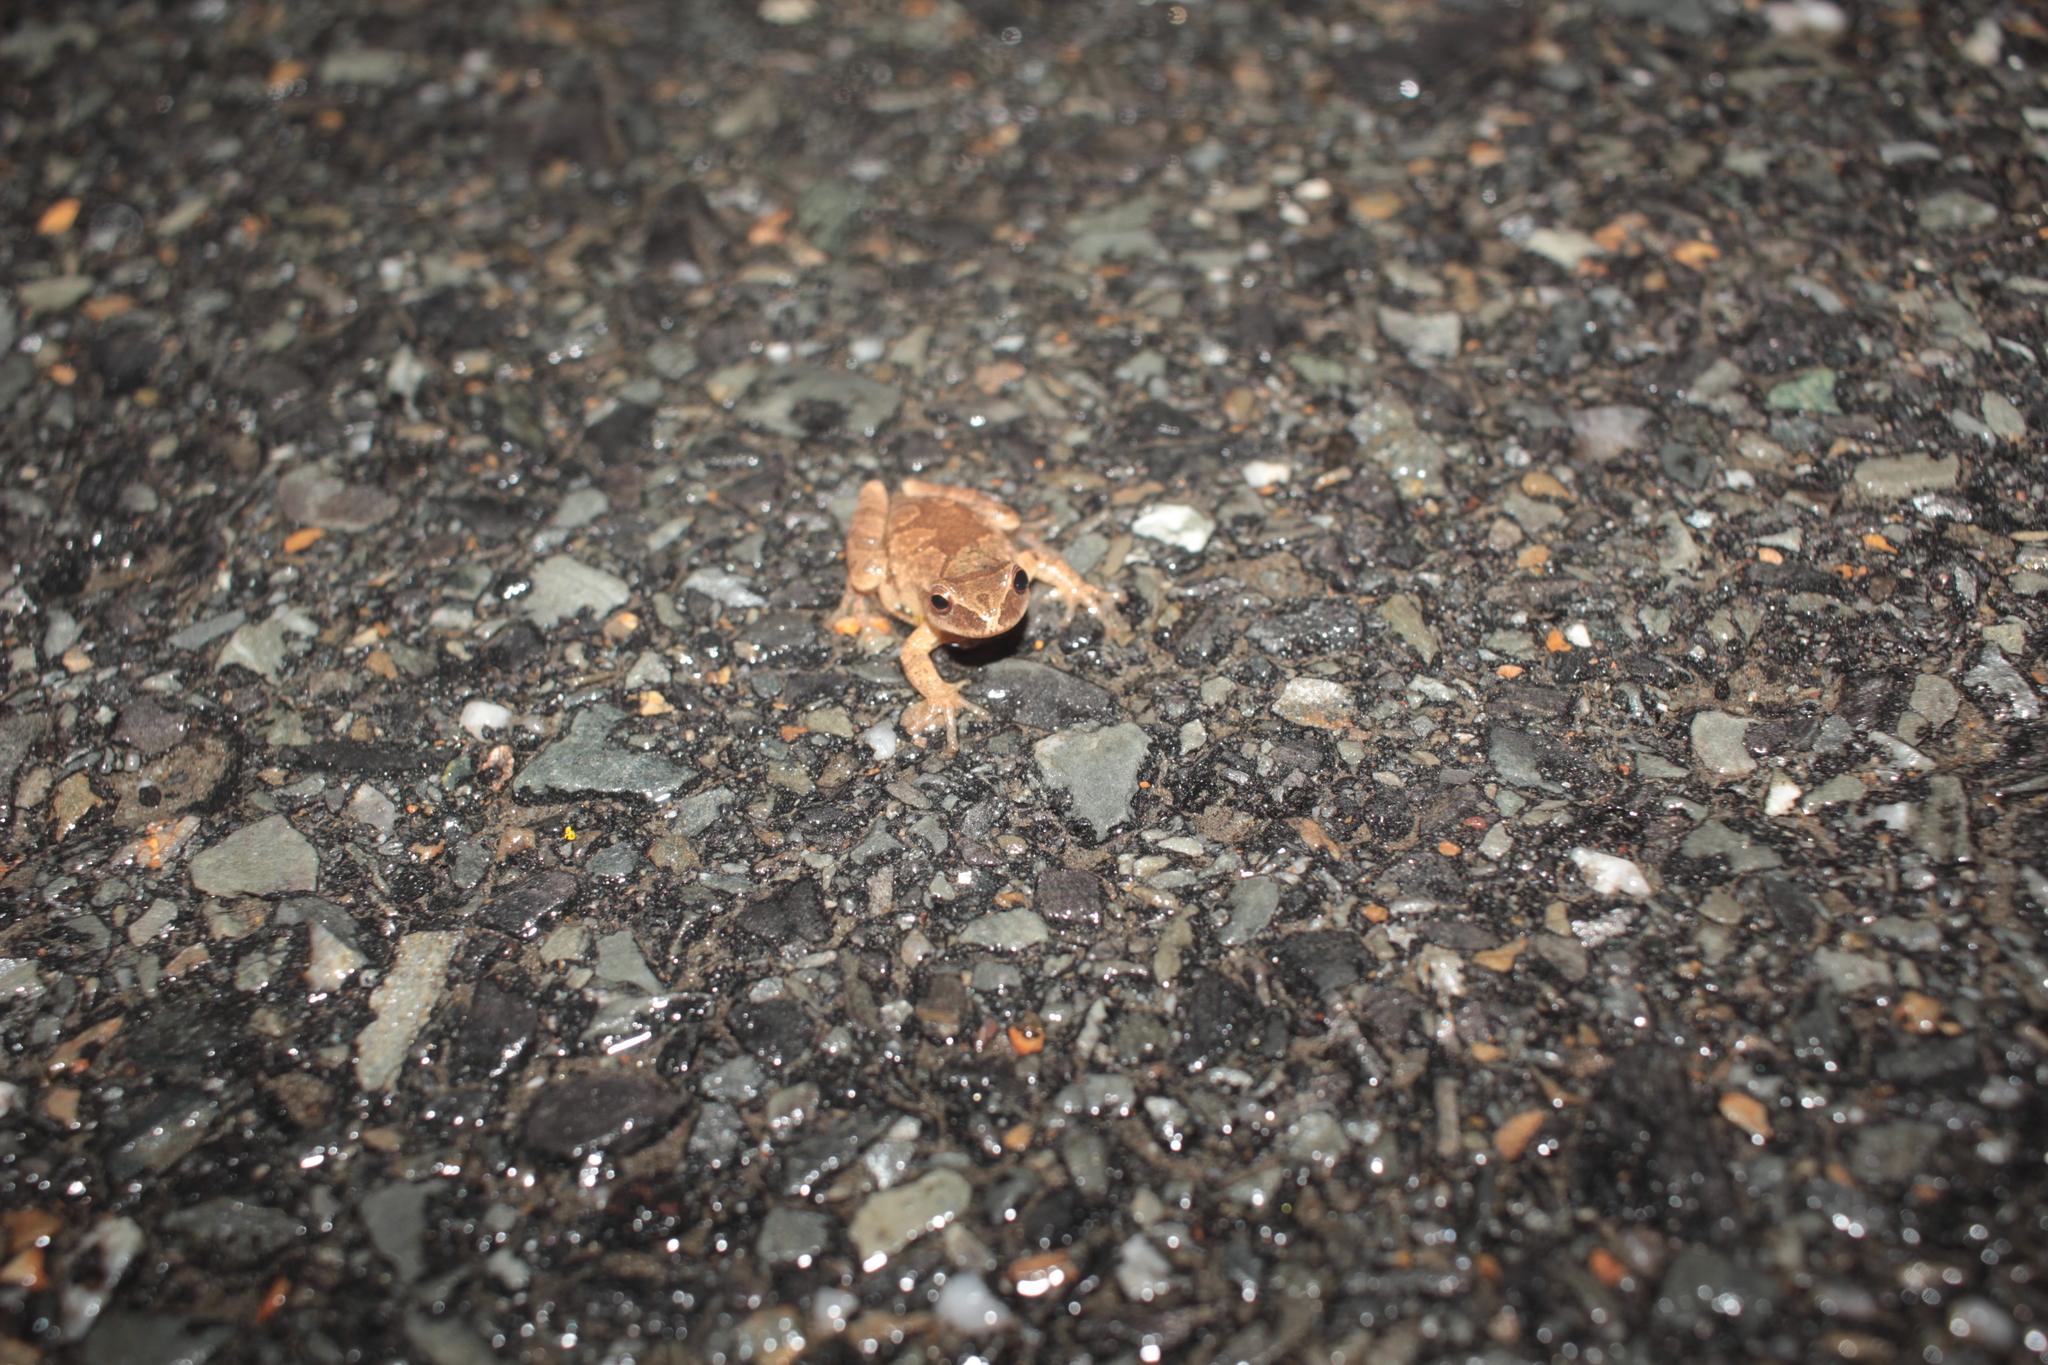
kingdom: Animalia
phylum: Chordata
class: Amphibia
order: Anura
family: Hylidae
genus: Pseudacris
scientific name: Pseudacris crucifer
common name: Spring peeper
